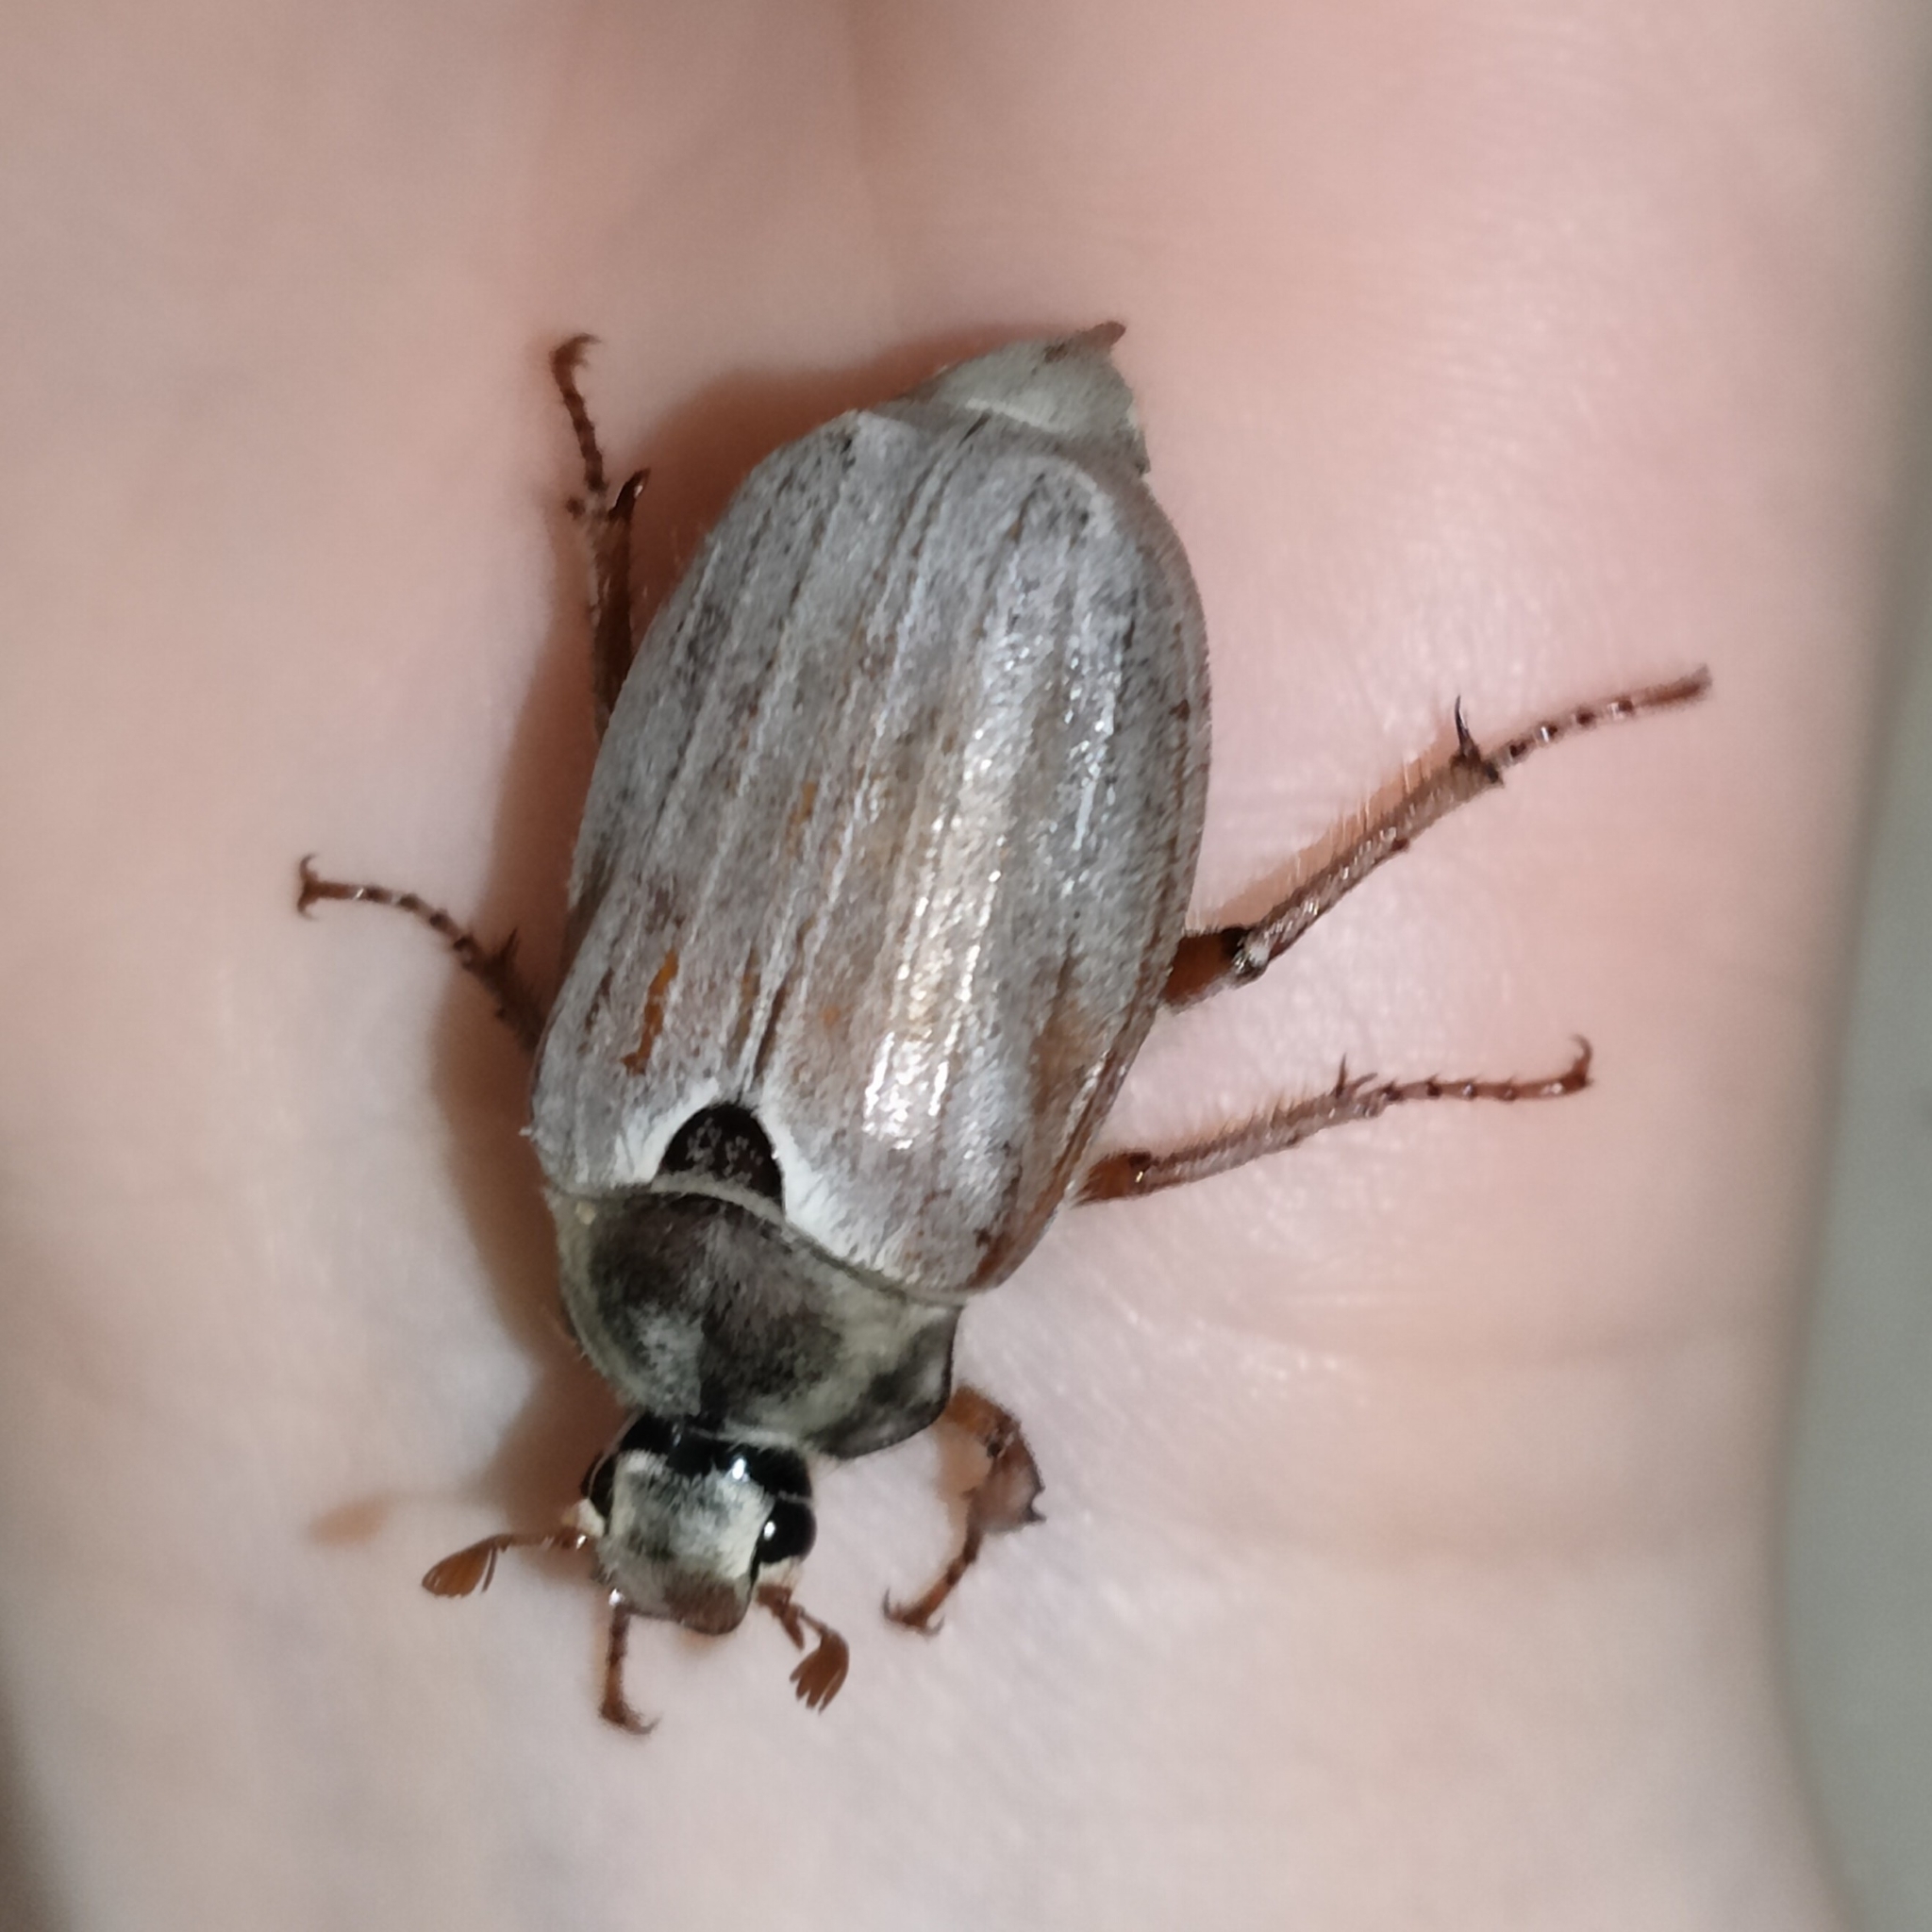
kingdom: Animalia
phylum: Arthropoda
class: Insecta
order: Coleoptera
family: Scarabaeidae
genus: Melolontha
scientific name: Melolontha melolontha
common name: Cockchafer maybeetle
